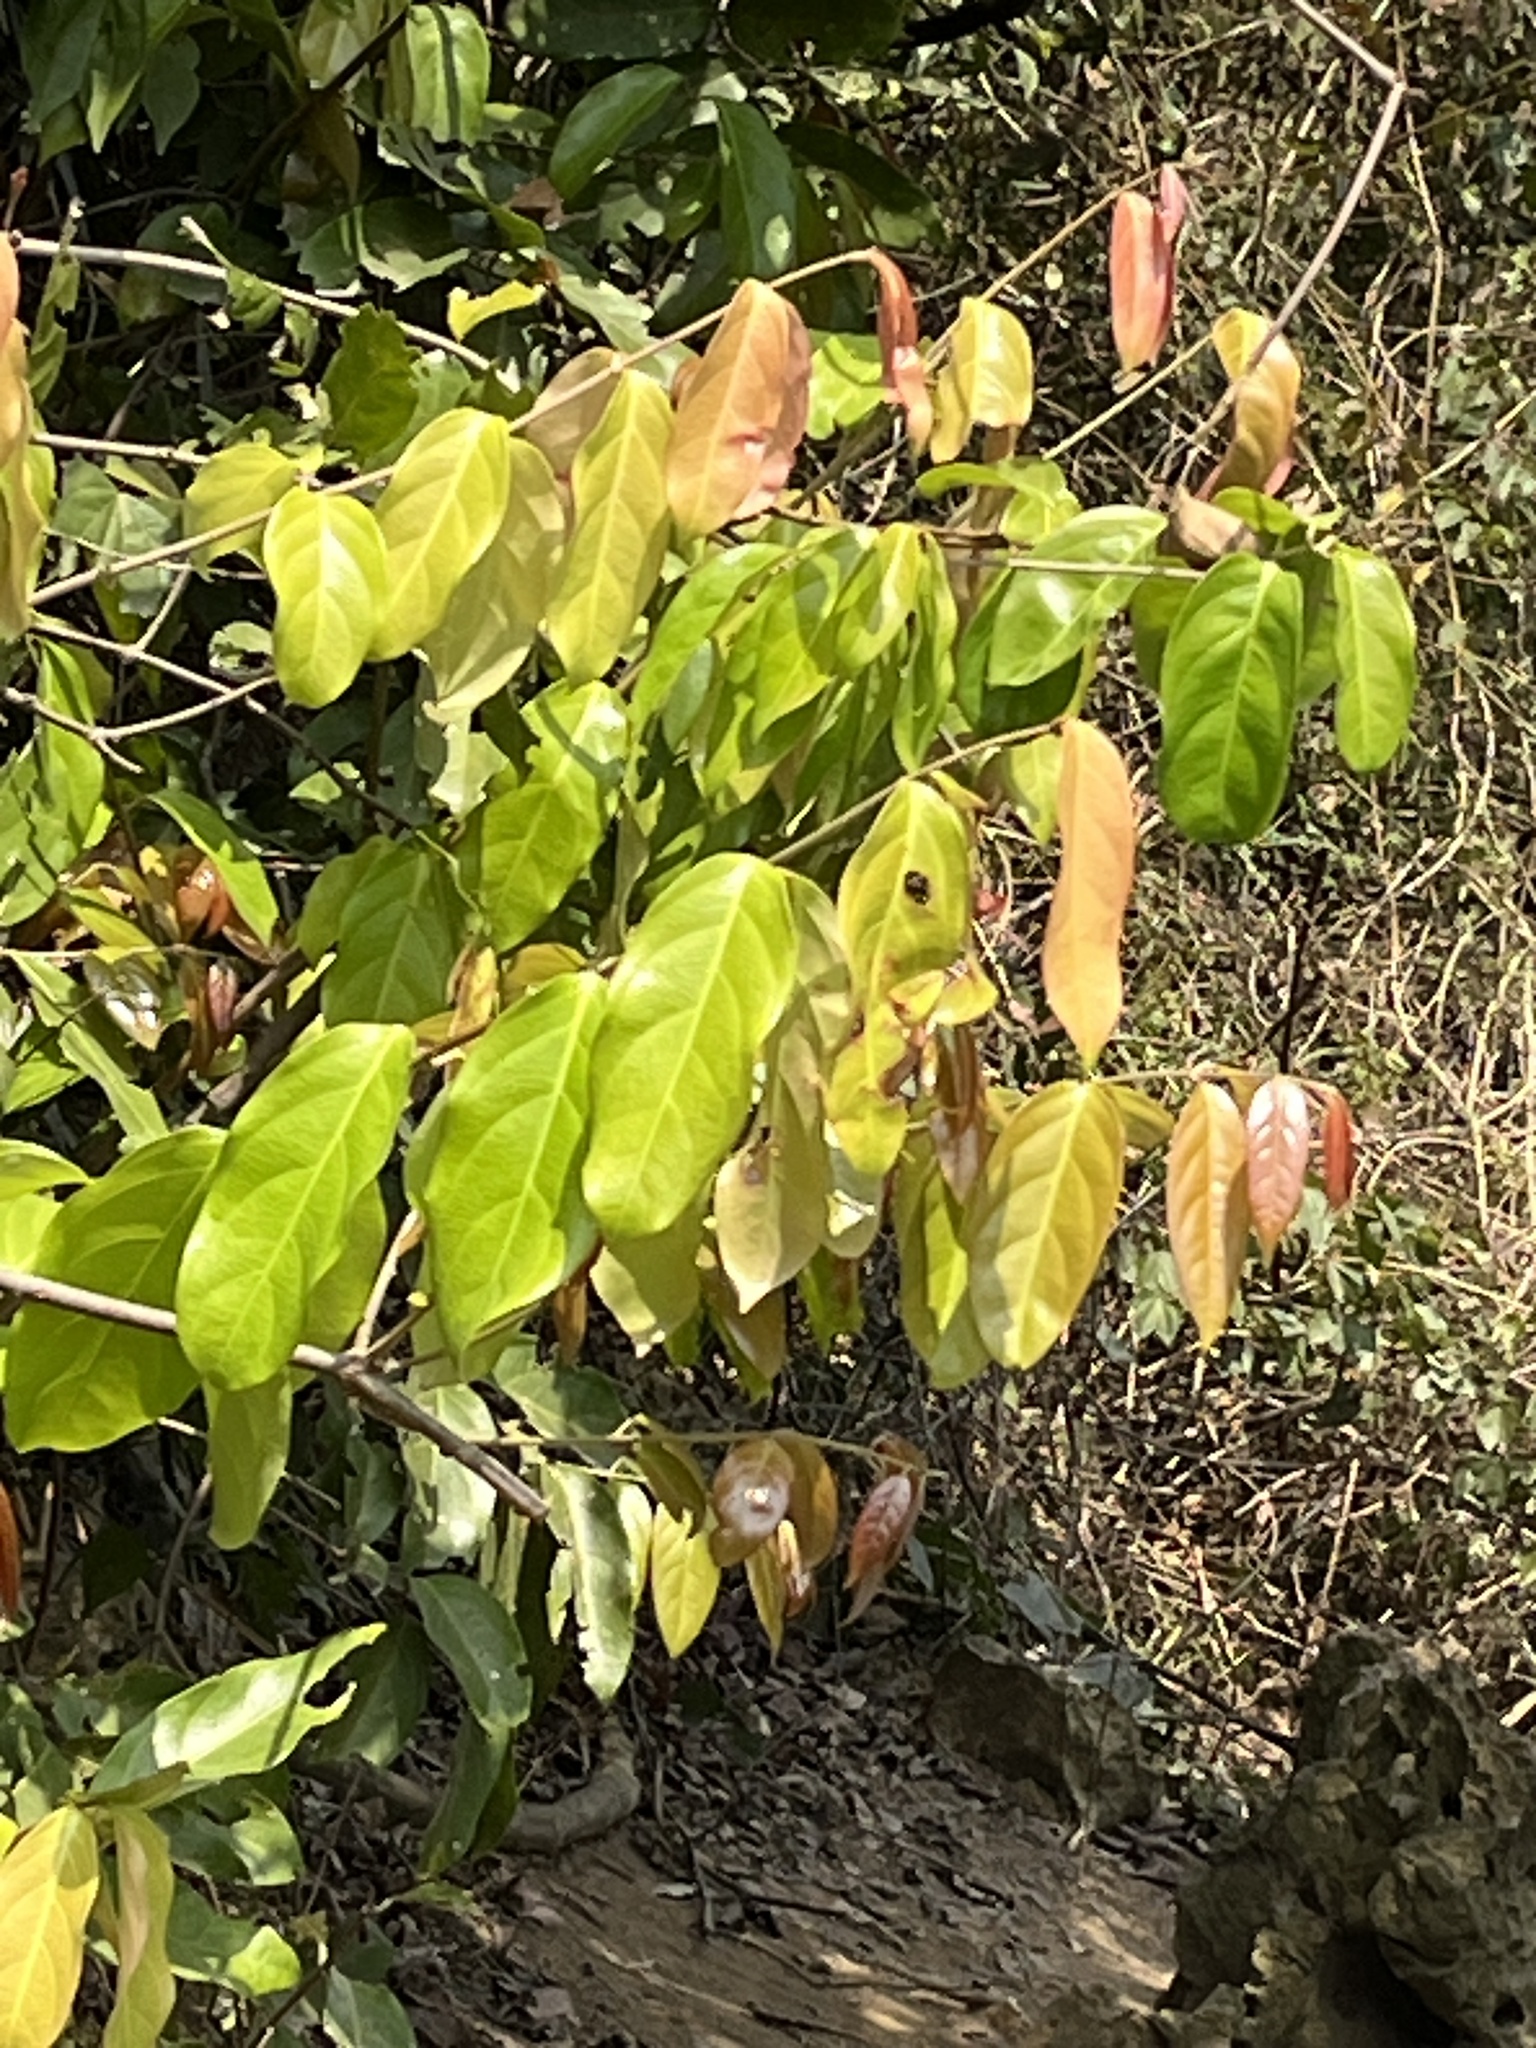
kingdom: Plantae
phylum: Tracheophyta
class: Magnoliopsida
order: Malpighiales
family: Malpighiaceae
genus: Hiptage
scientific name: Hiptage benghalensis
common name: Hiptage
